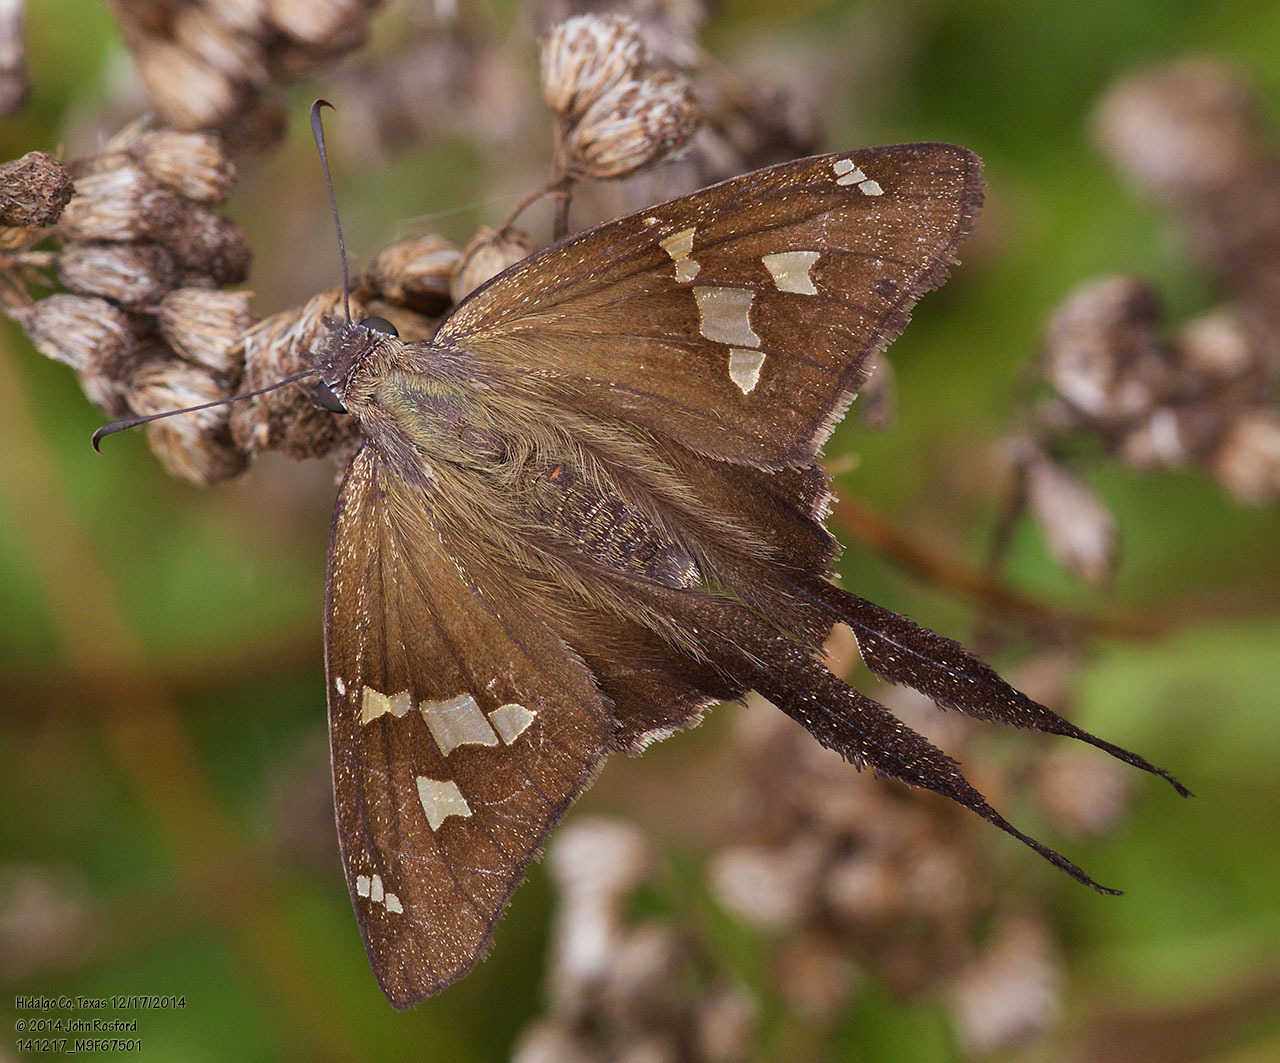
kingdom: Animalia
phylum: Arthropoda
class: Insecta
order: Lepidoptera
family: Hesperiidae
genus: Chioides
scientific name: Chioides catillus
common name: Silverbanded skipper
